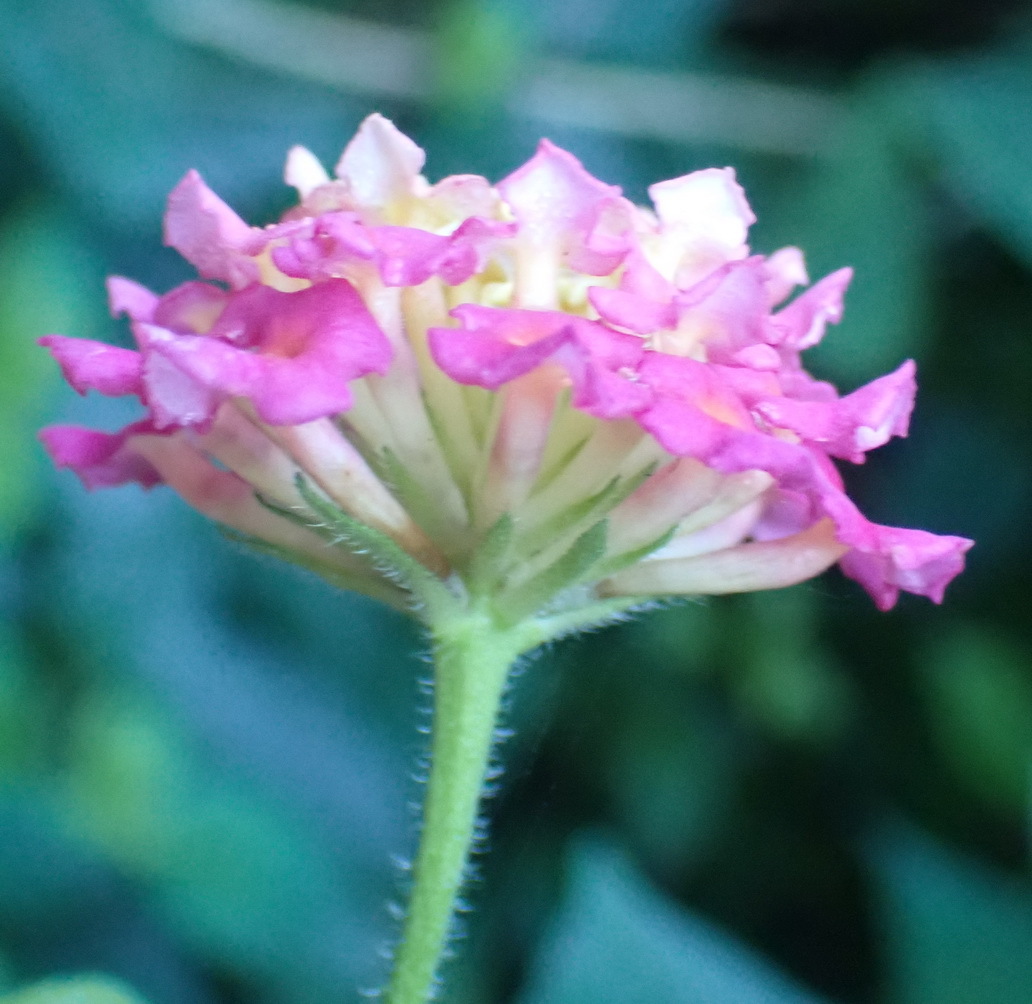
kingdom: Plantae
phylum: Tracheophyta
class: Magnoliopsida
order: Lamiales
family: Verbenaceae
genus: Lantana
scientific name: Lantana camara
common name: Lantana
